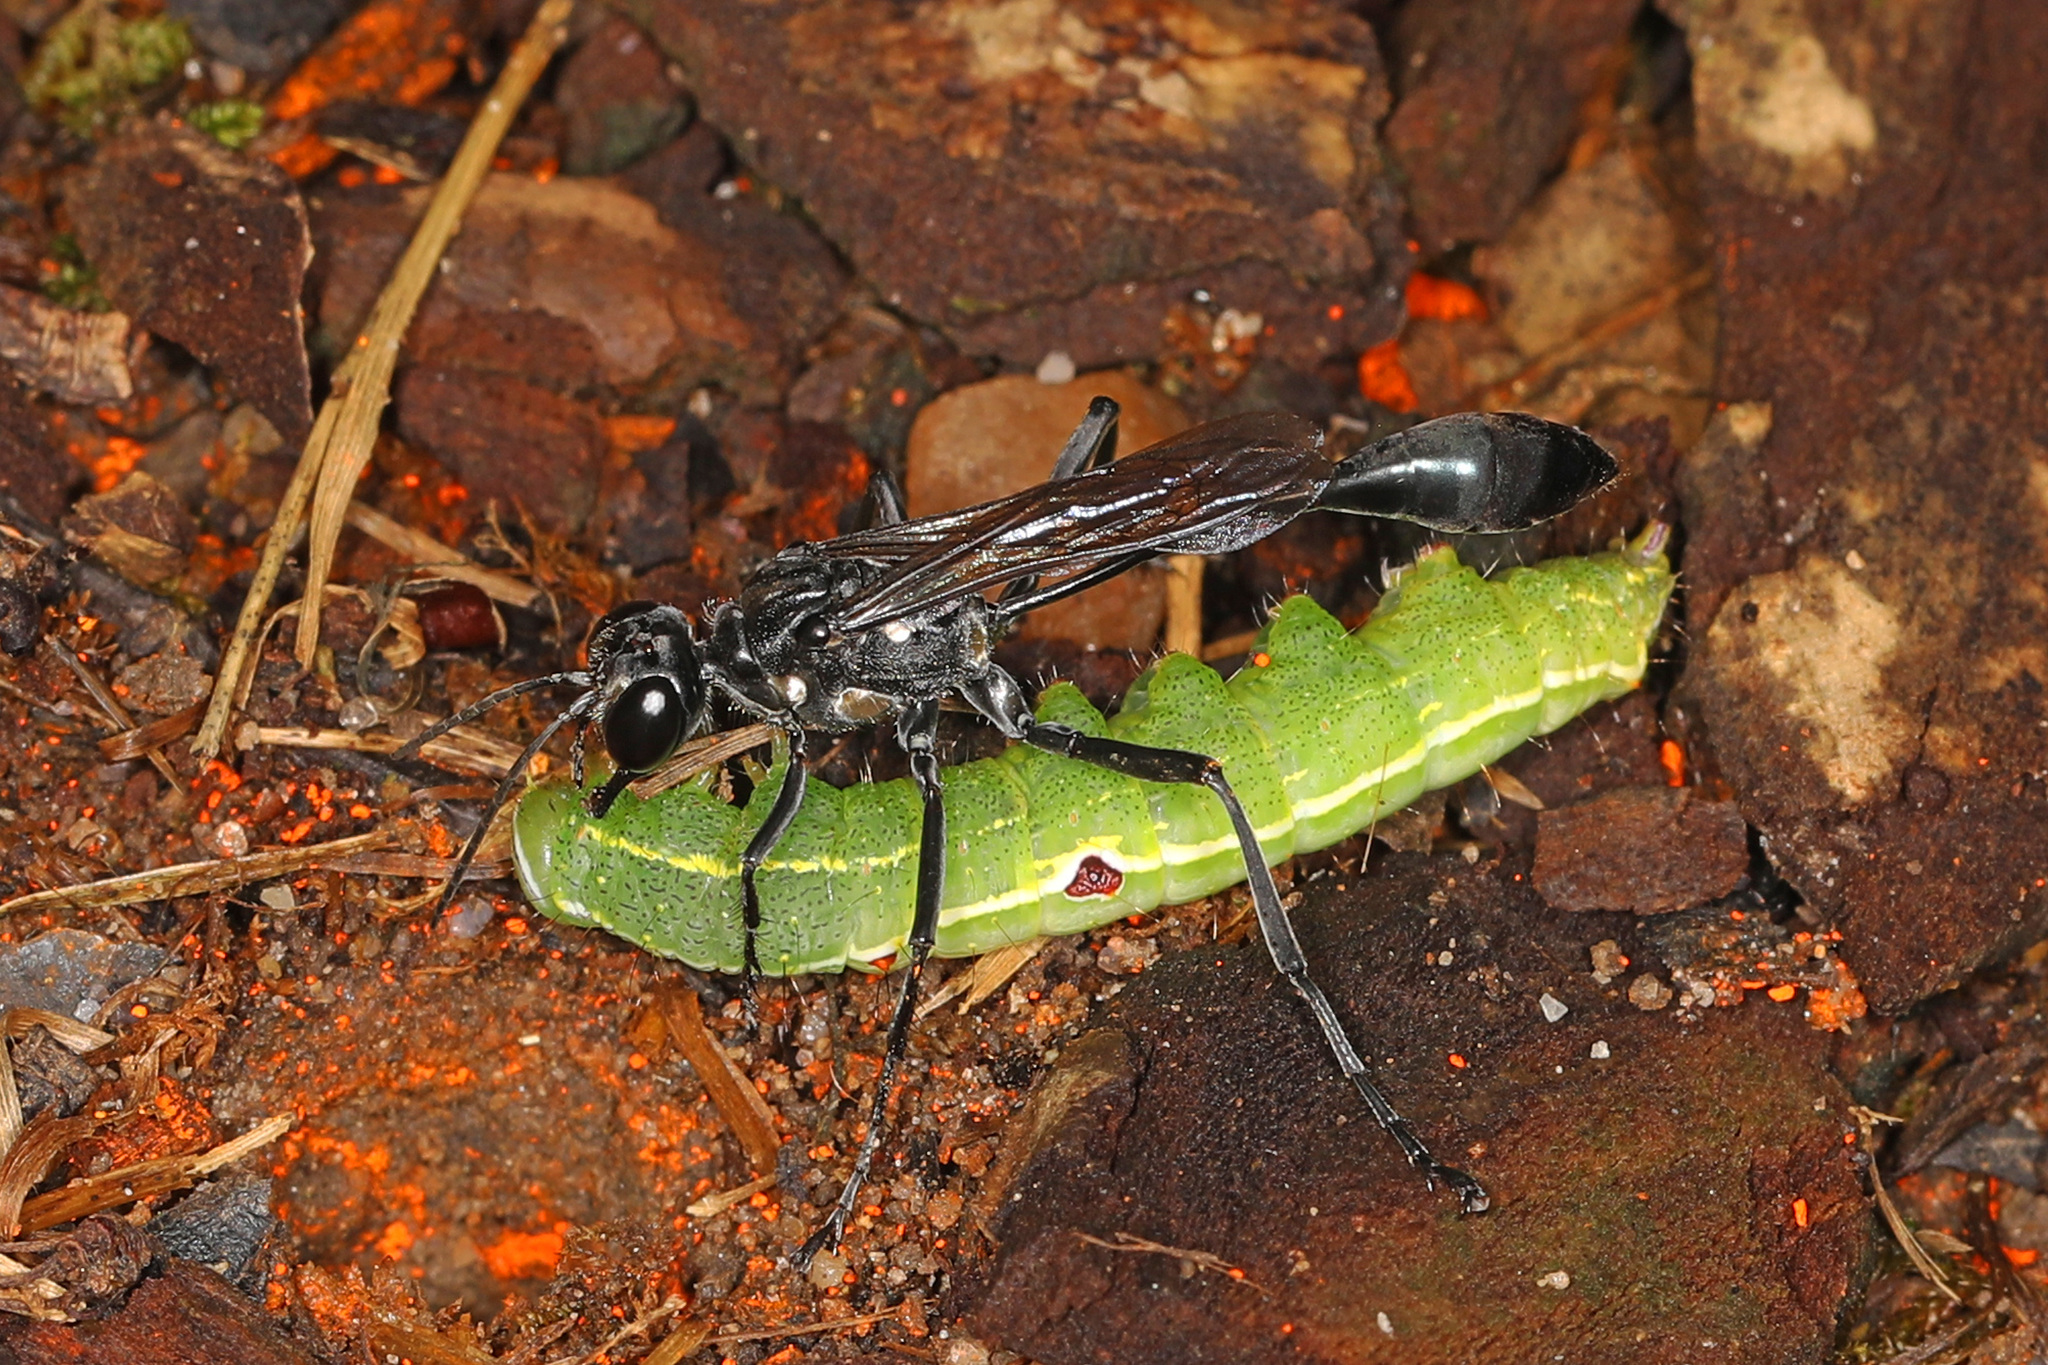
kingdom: Animalia
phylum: Arthropoda
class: Insecta
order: Hymenoptera
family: Sphecidae
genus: Eremnophila
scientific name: Eremnophila aureonotata
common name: Gold-marked thread-waisted wasp
